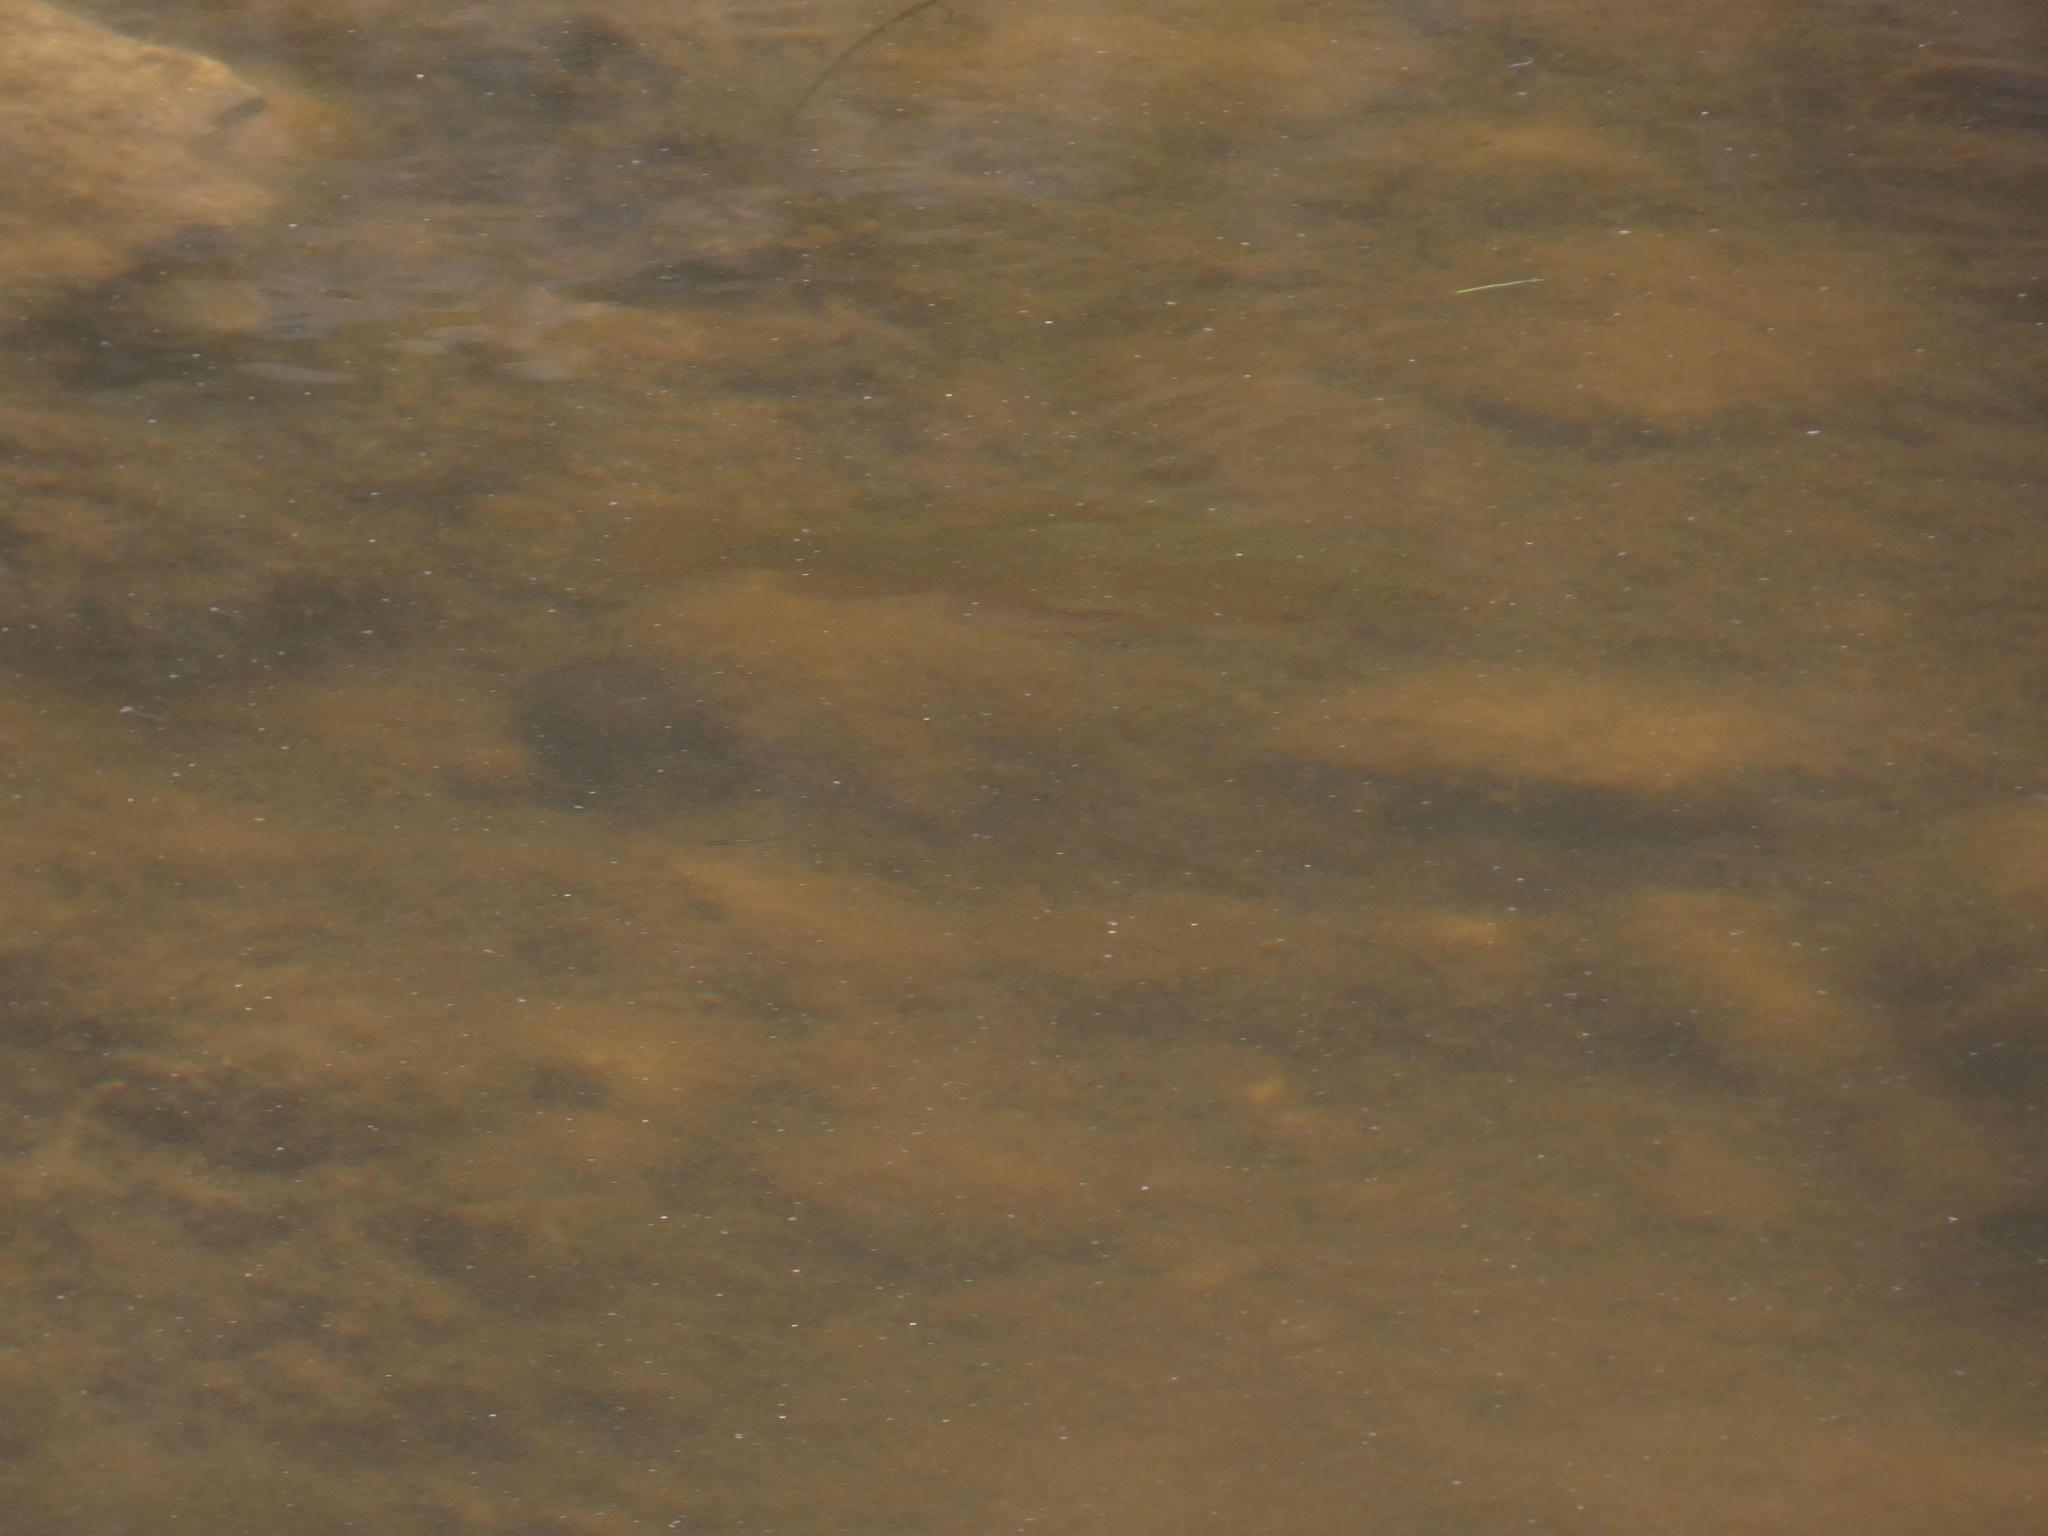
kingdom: Animalia
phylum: Chordata
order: Cypriniformes
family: Cyprinidae
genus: Tinca
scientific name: Tinca tinca
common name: Tench
